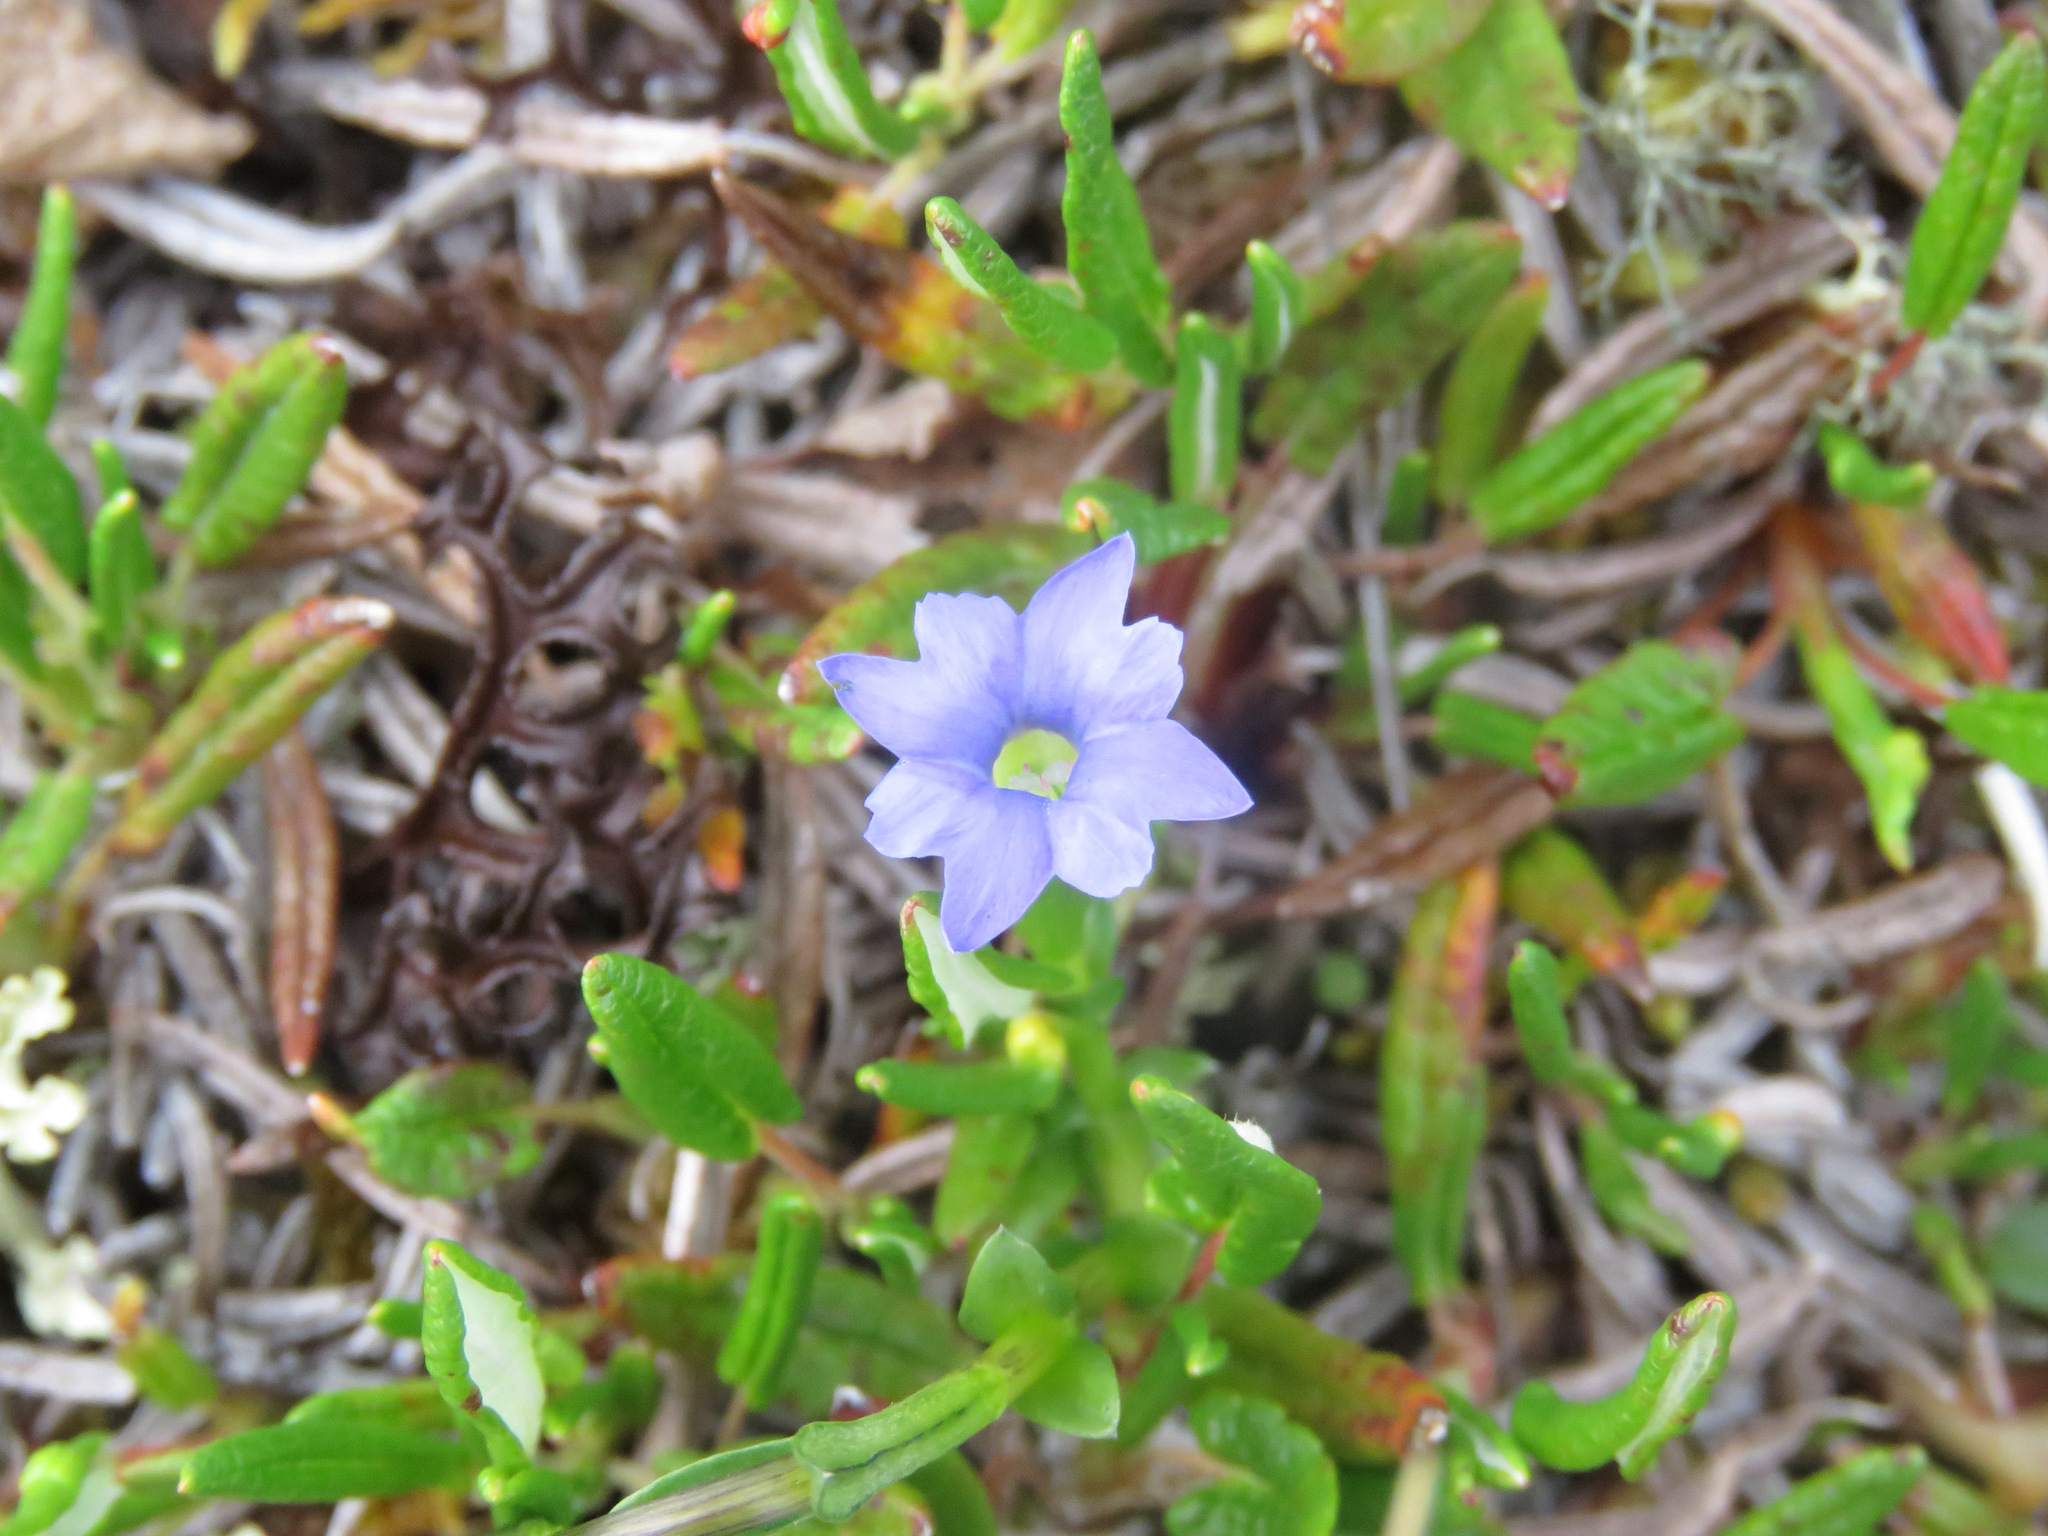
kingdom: Plantae
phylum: Tracheophyta
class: Magnoliopsida
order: Gentianales
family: Gentianaceae
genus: Gentiana
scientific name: Gentiana prostrata
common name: Moss gentian
